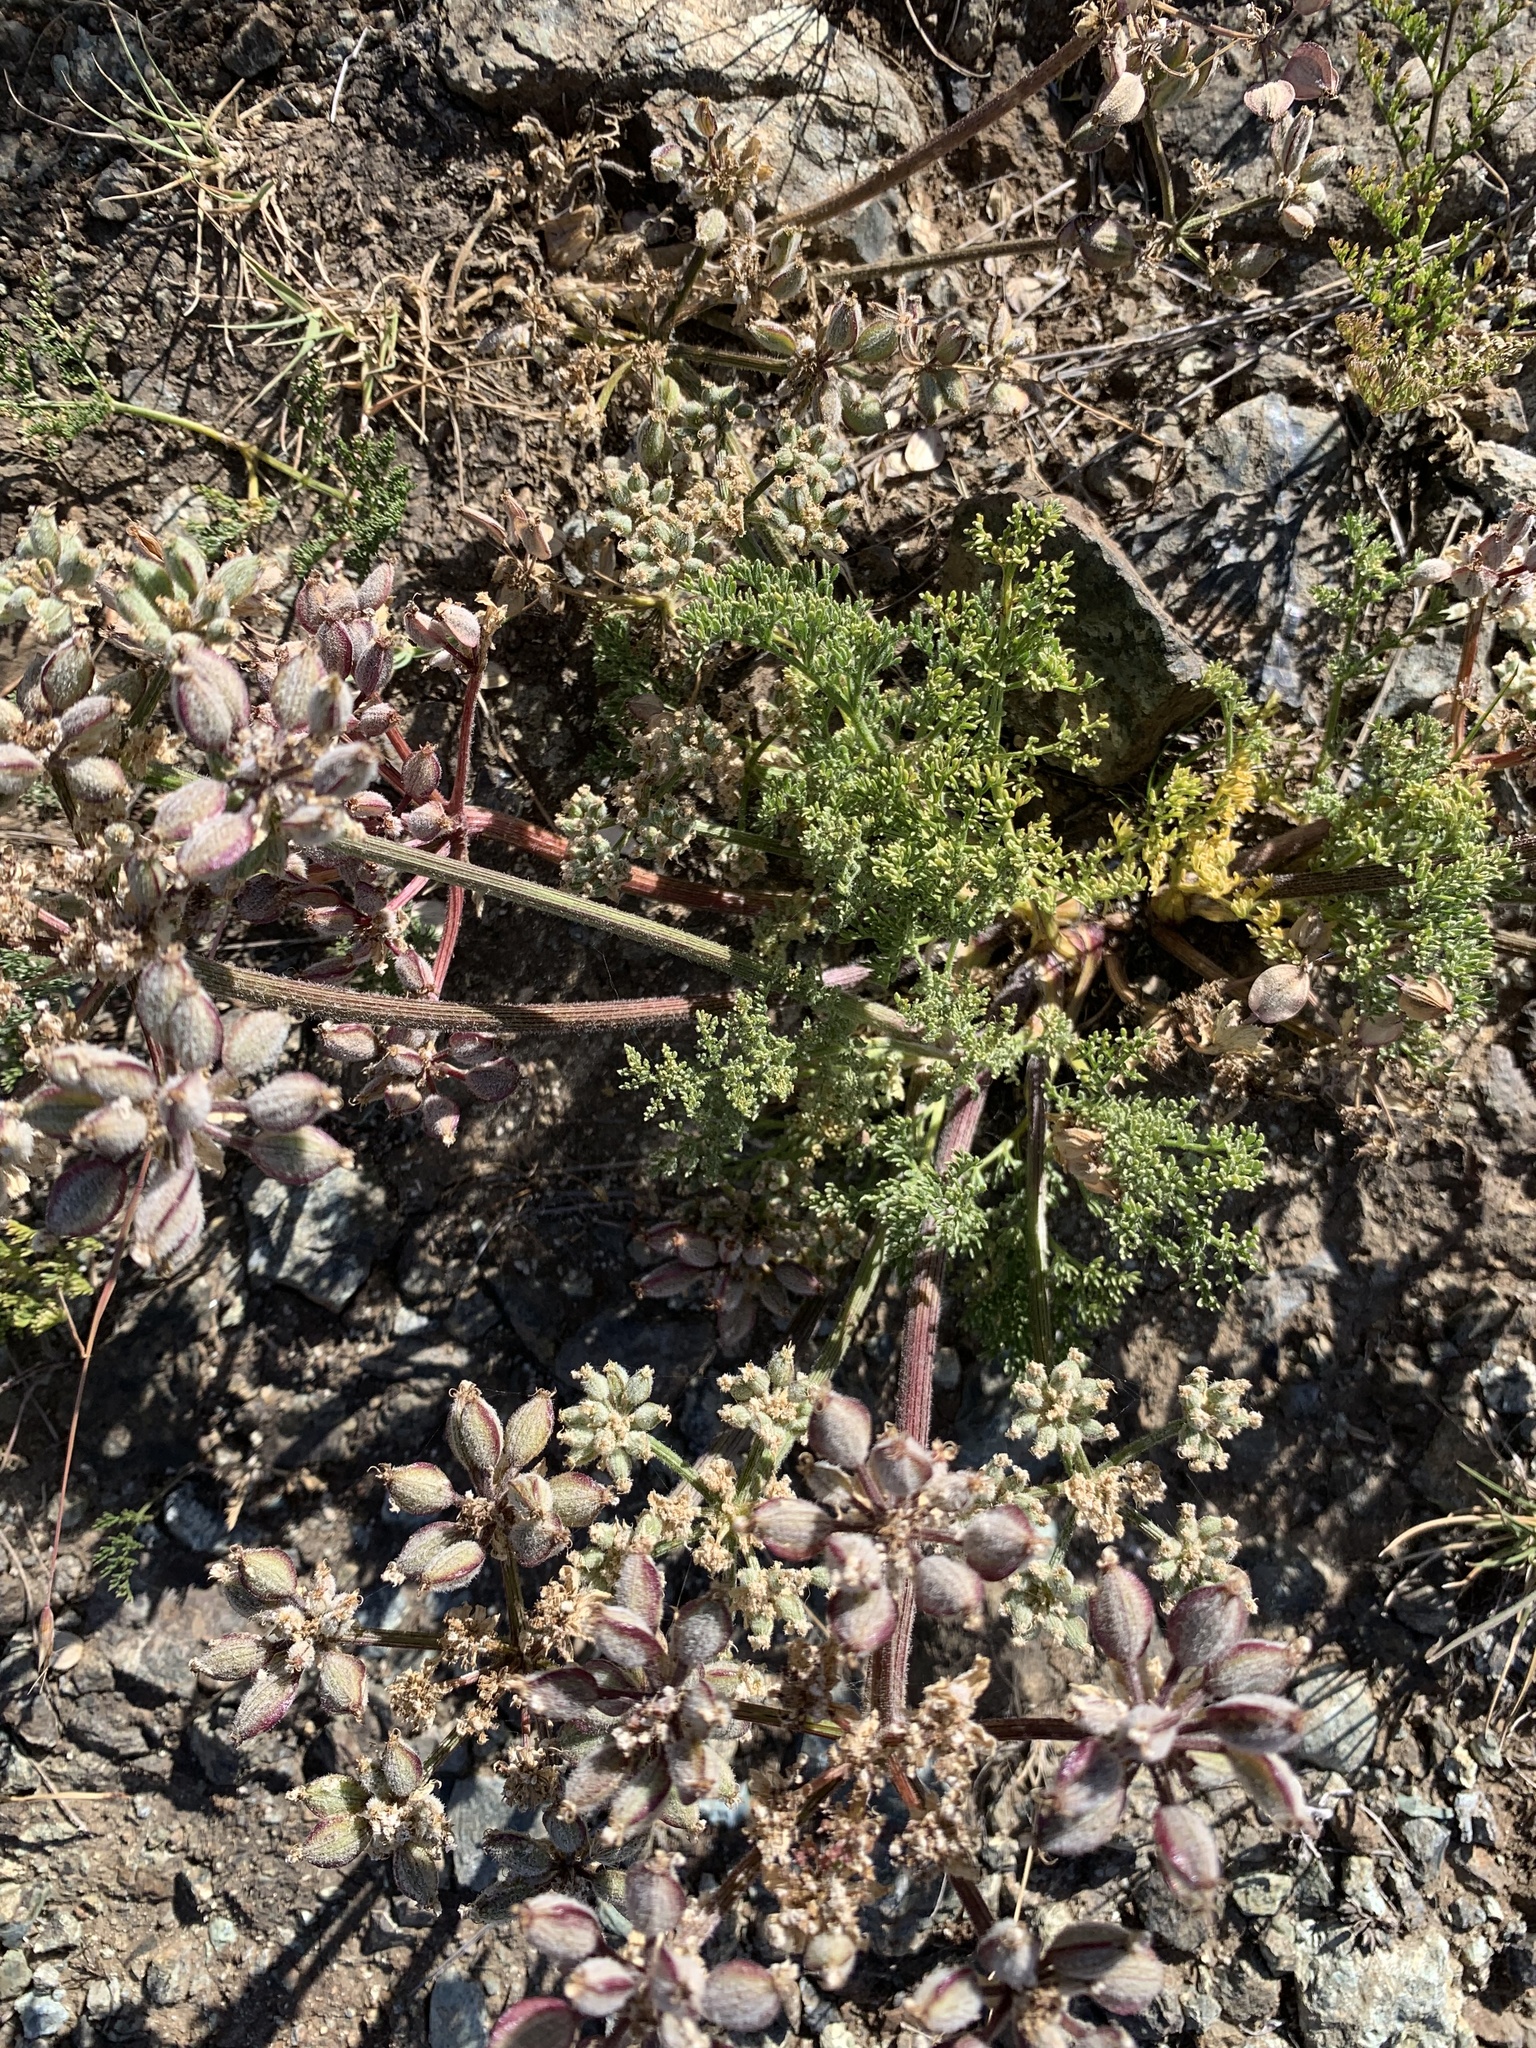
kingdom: Plantae
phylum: Tracheophyta
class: Magnoliopsida
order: Apiales
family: Apiaceae
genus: Lomatium
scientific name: Lomatium dasycarpum
